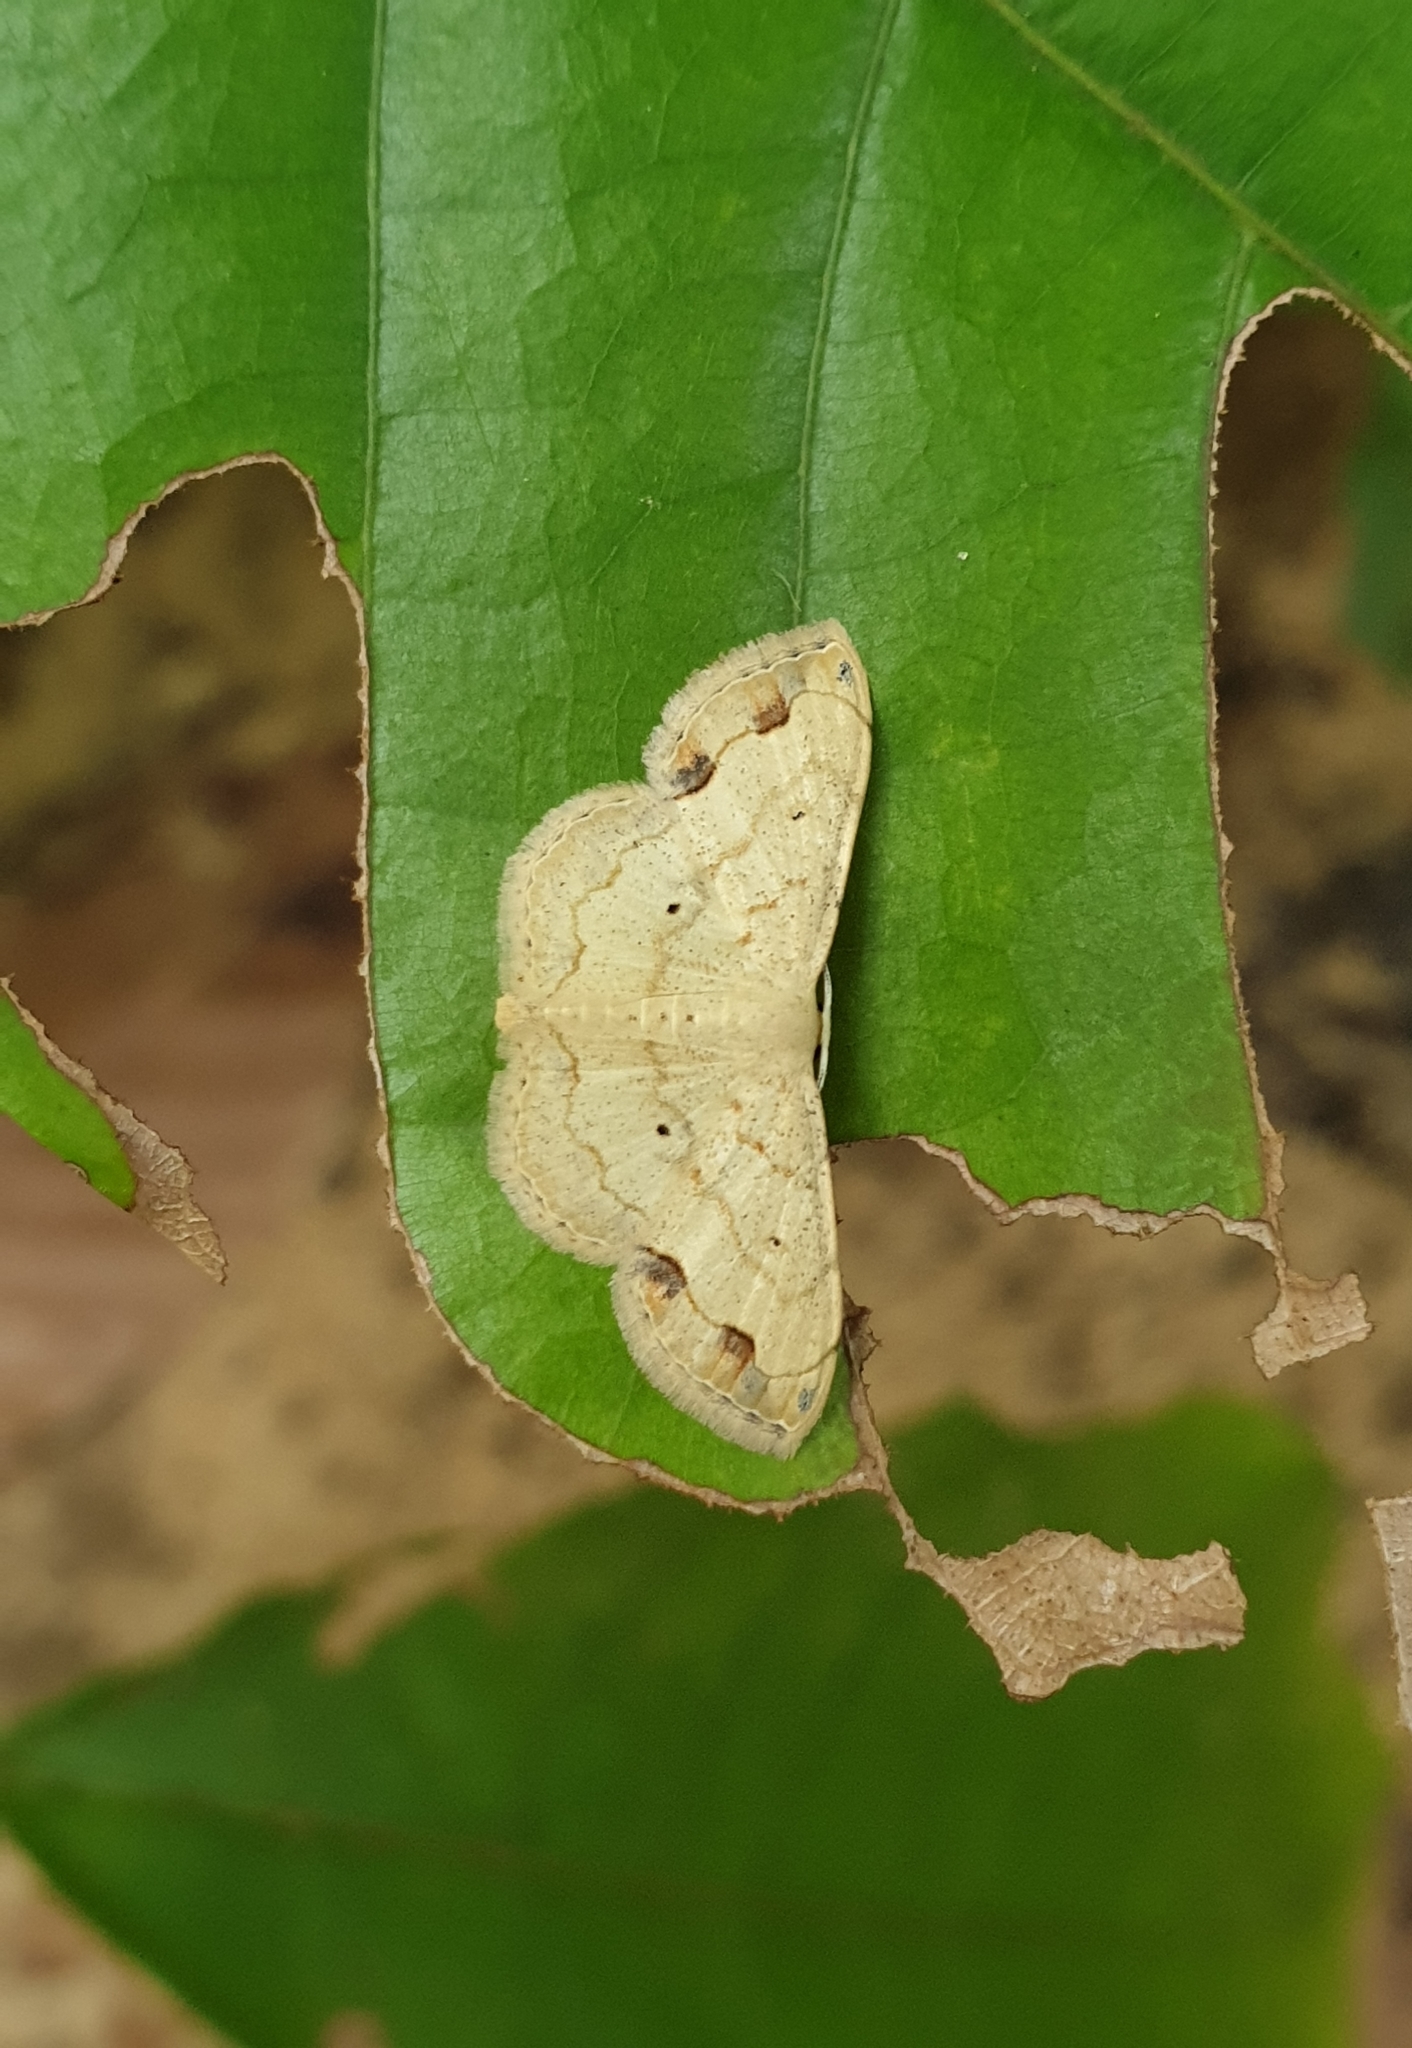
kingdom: Animalia
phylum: Arthropoda
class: Insecta
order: Lepidoptera
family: Geometridae
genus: Scopula
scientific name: Scopula addictaria
